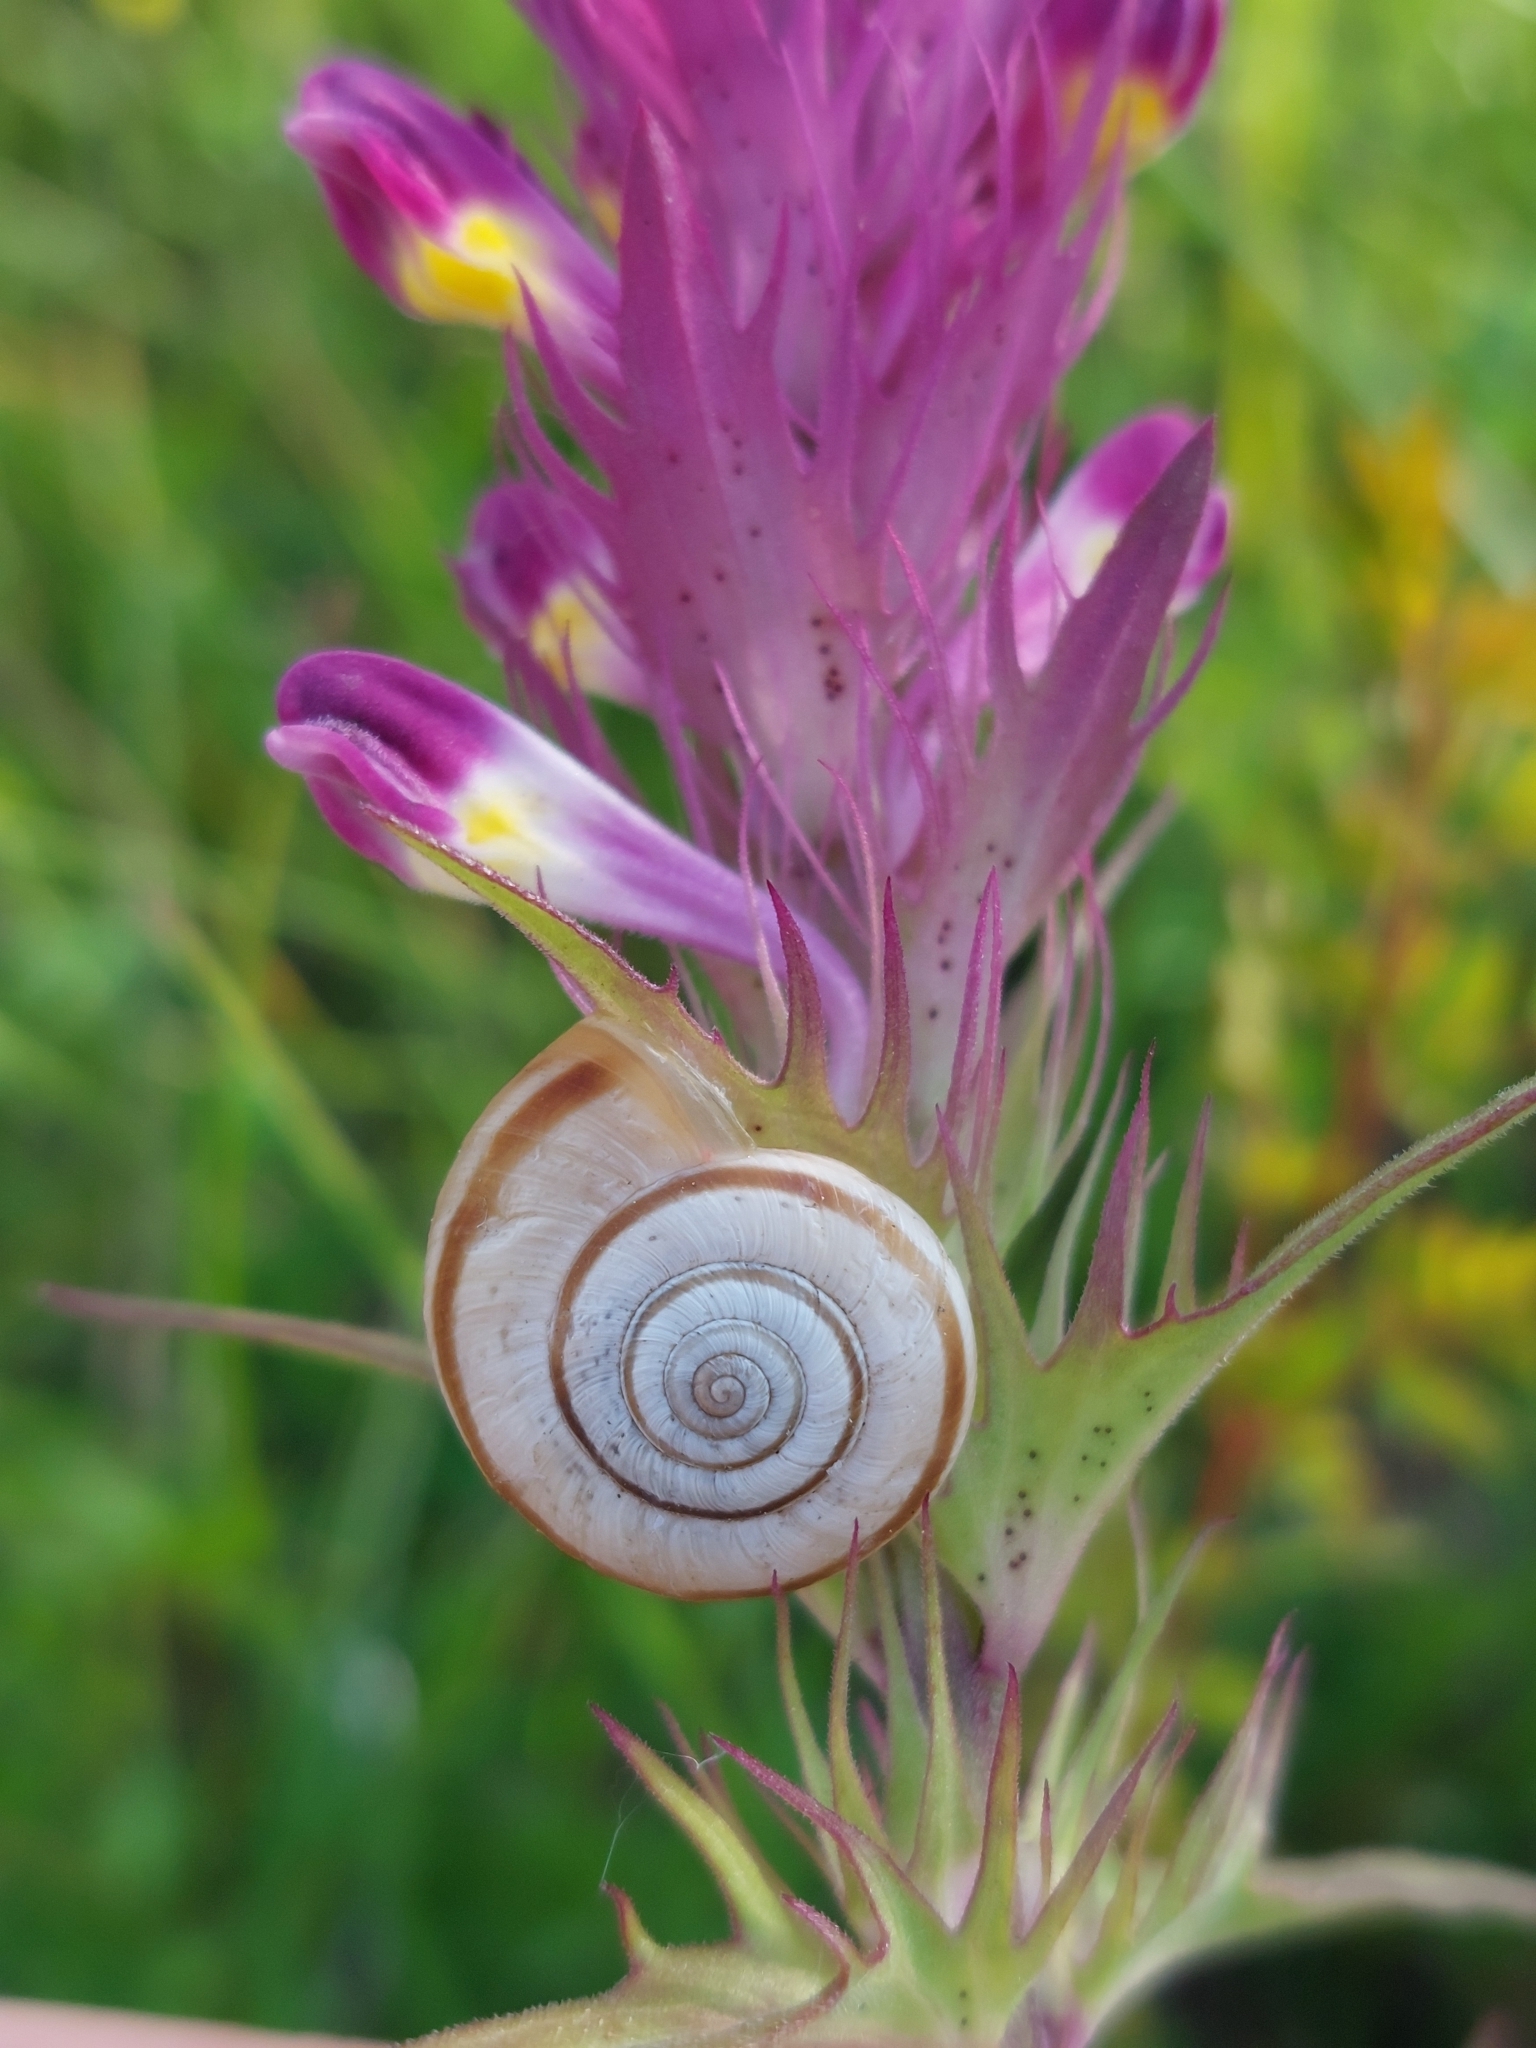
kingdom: Animalia
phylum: Mollusca
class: Gastropoda
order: Stylommatophora
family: Geomitridae
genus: Helicella
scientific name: Helicella itala
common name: Heath snail
